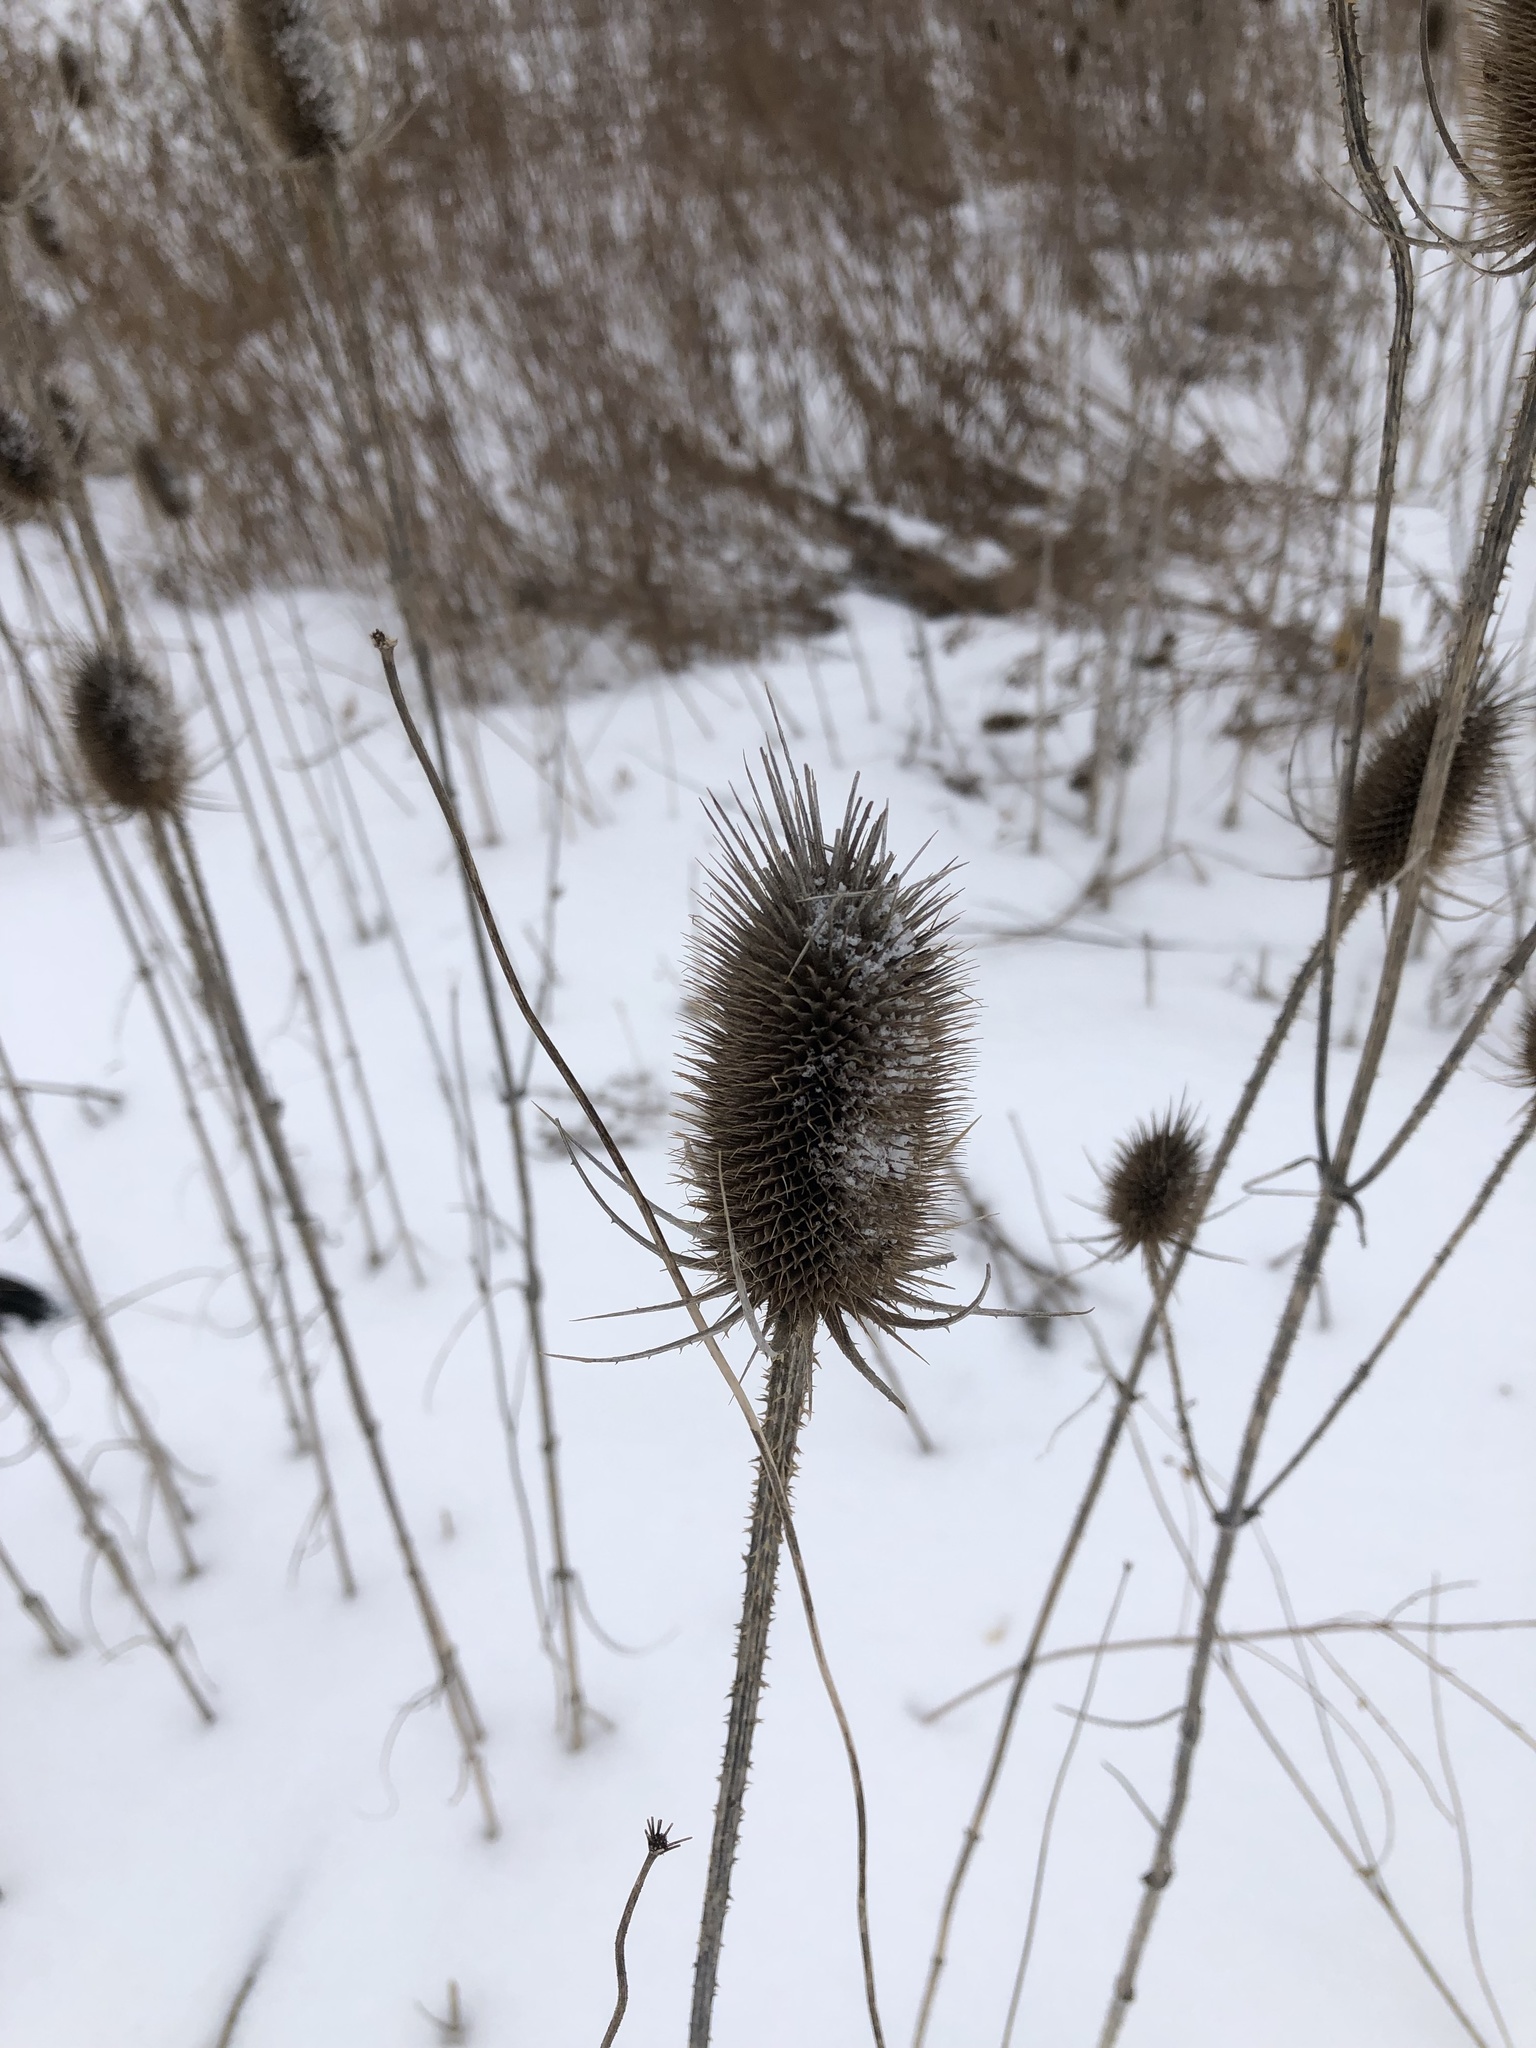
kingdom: Plantae
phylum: Tracheophyta
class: Magnoliopsida
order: Dipsacales
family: Caprifoliaceae
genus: Dipsacus
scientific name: Dipsacus fullonum
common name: Teasel
